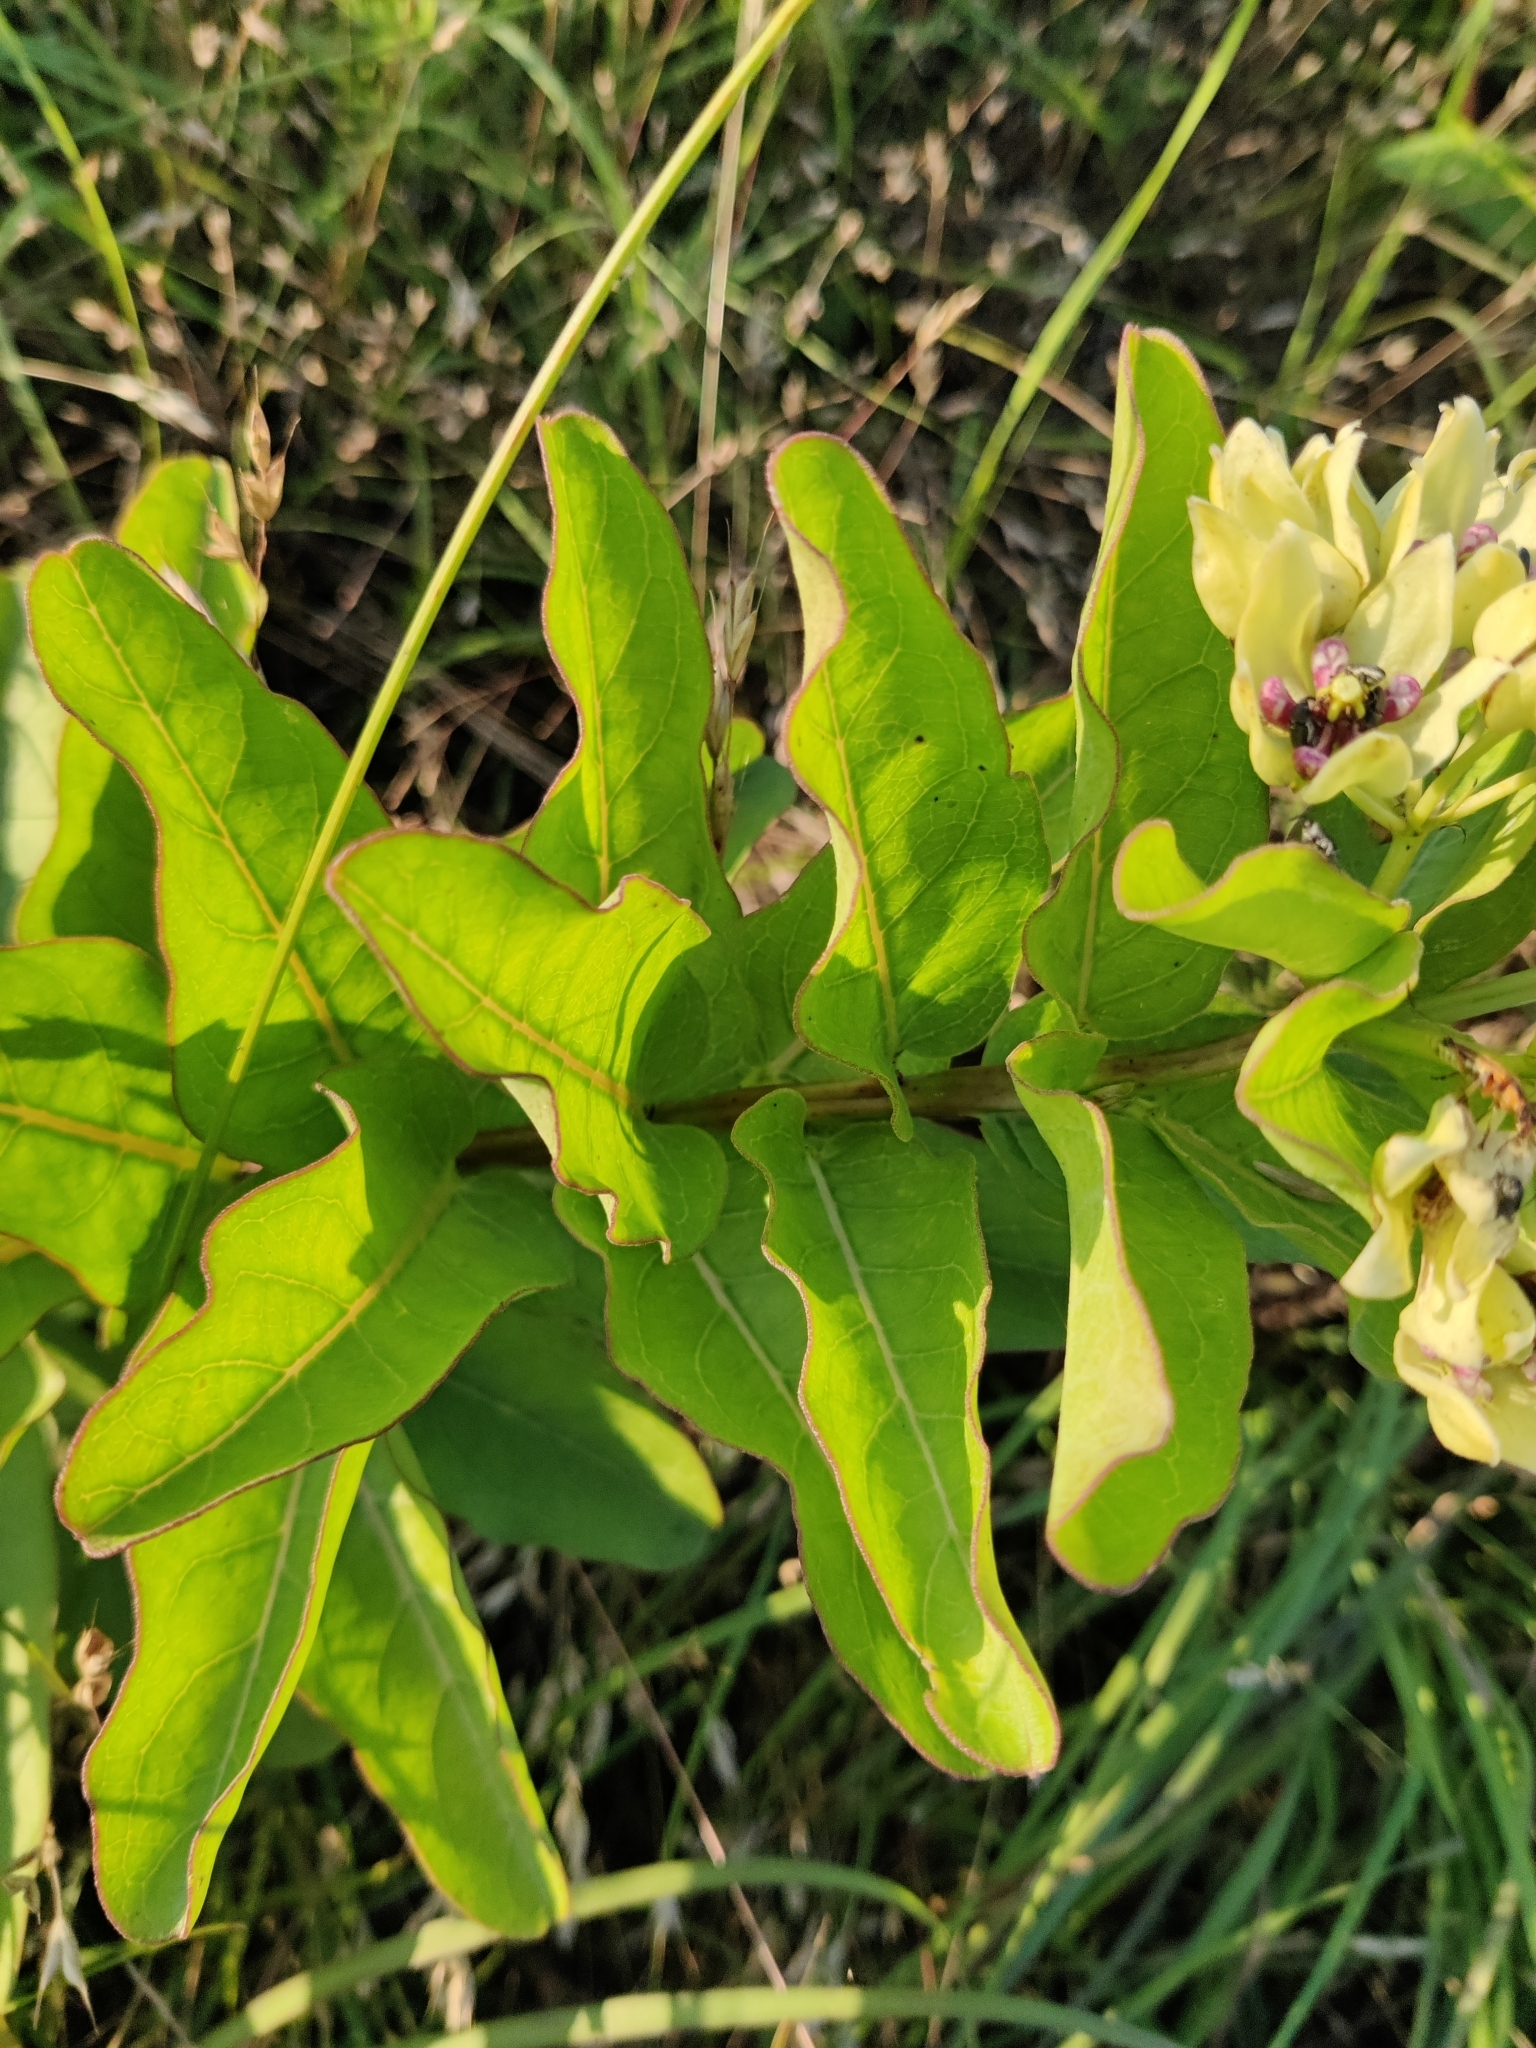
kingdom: Plantae
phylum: Tracheophyta
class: Magnoliopsida
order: Gentianales
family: Apocynaceae
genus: Asclepias
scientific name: Asclepias viridis
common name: Antelope-horns
